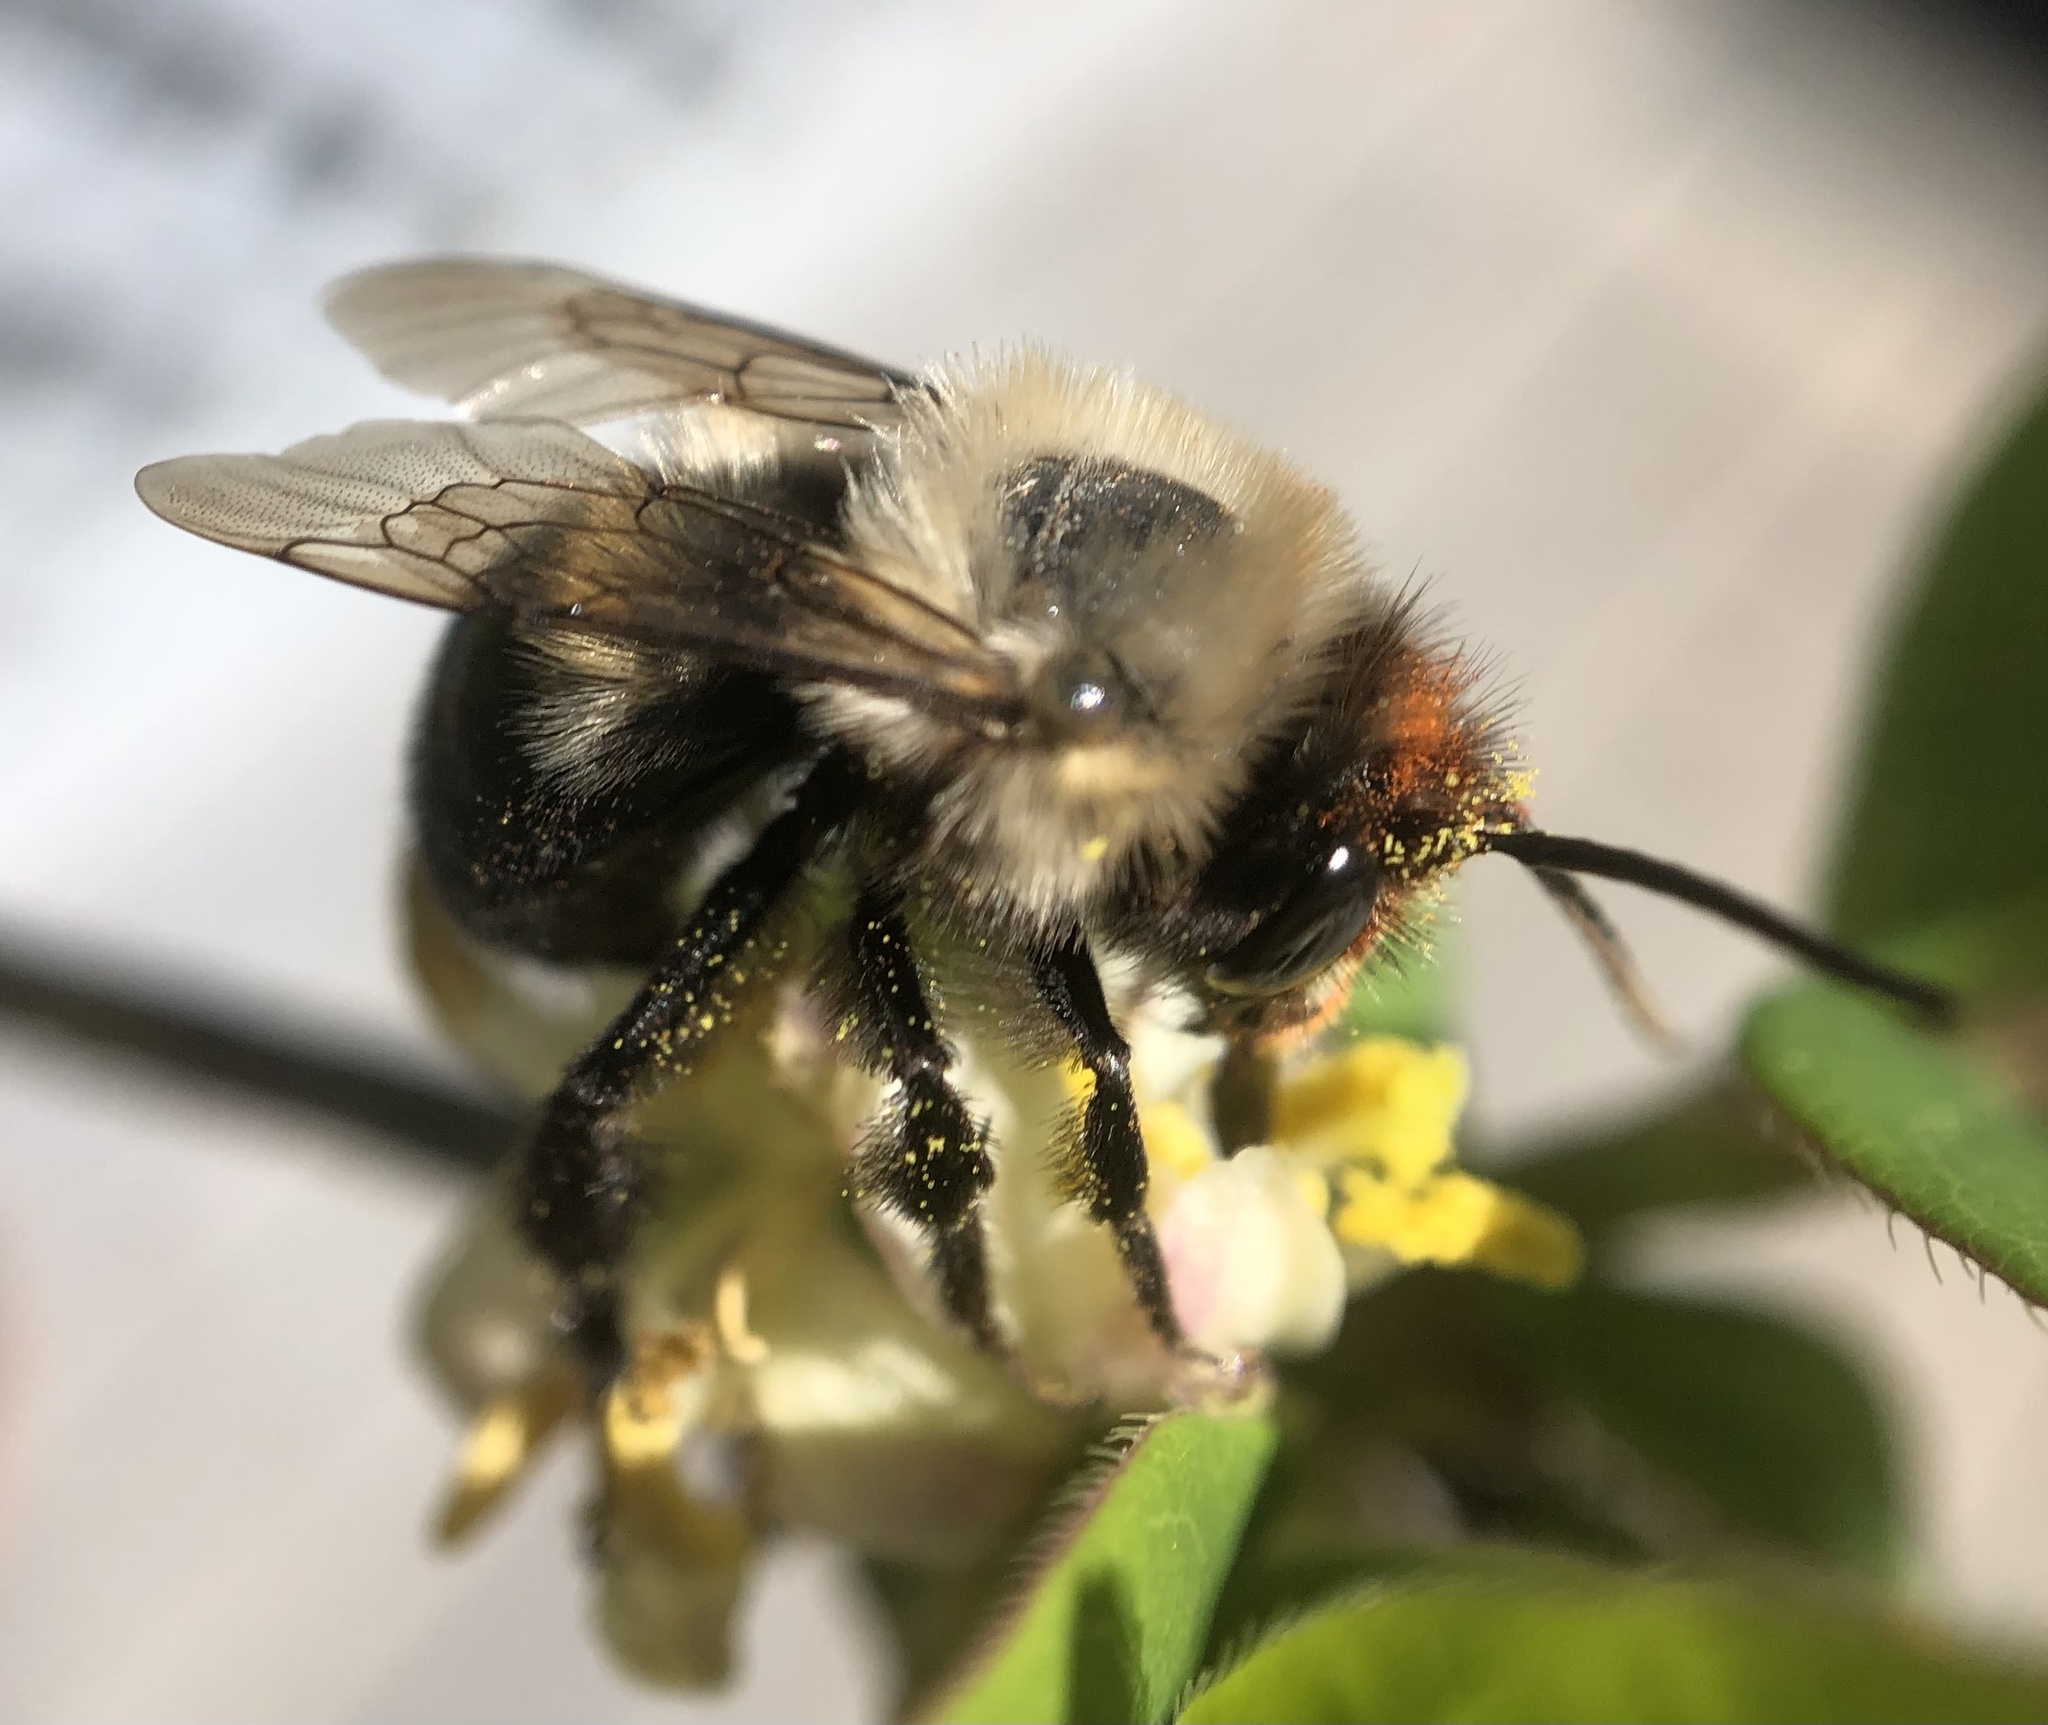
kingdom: Animalia
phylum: Arthropoda
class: Insecta
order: Hymenoptera
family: Apidae
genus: Habropoda
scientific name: Habropoda laboriosa
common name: Southeastern blueberry bee
